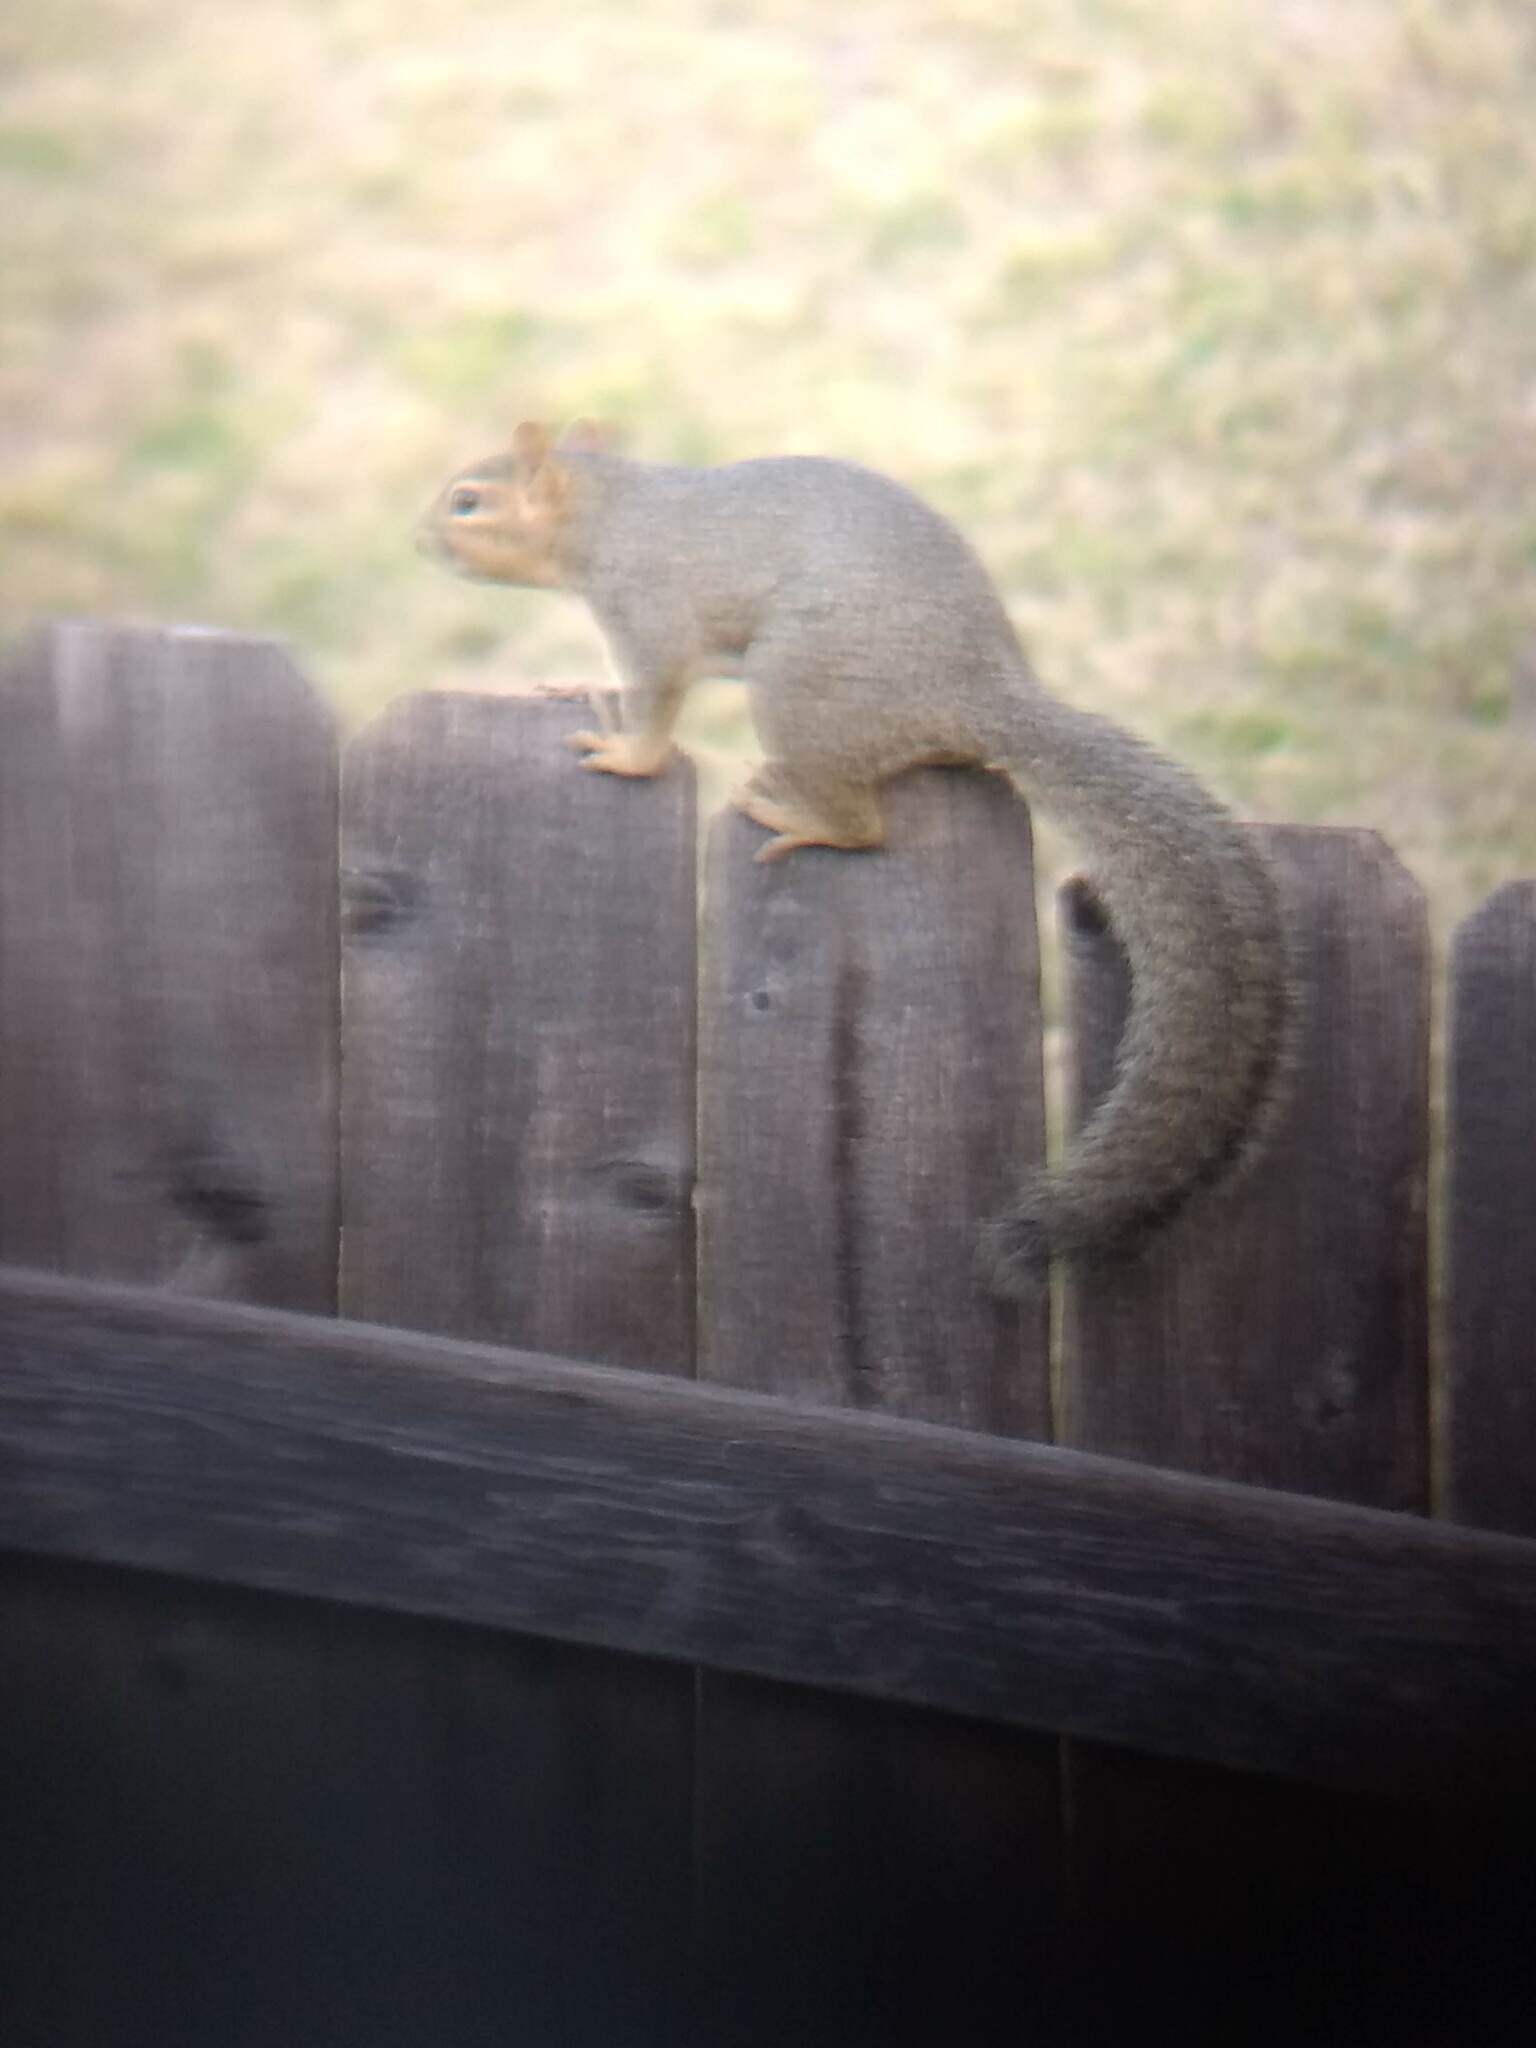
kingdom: Animalia
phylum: Chordata
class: Mammalia
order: Rodentia
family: Sciuridae
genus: Sciurus
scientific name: Sciurus niger
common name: Fox squirrel
